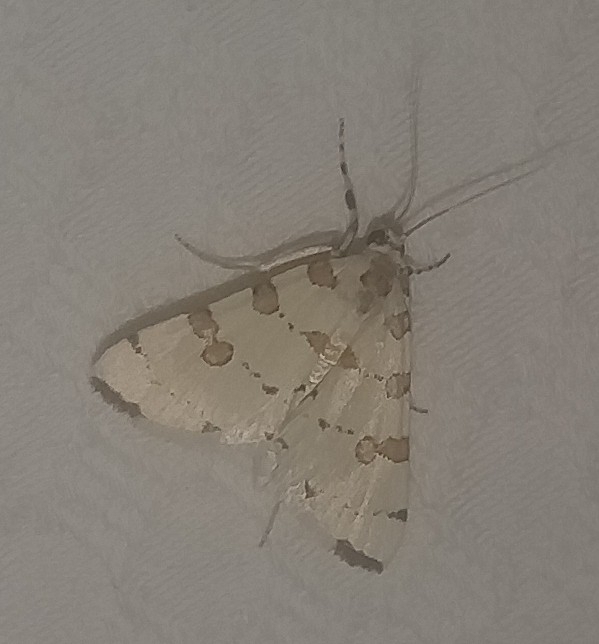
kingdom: Animalia
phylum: Arthropoda
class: Insecta
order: Lepidoptera
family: Crambidae
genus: Conchylodes
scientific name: Conchylodes
